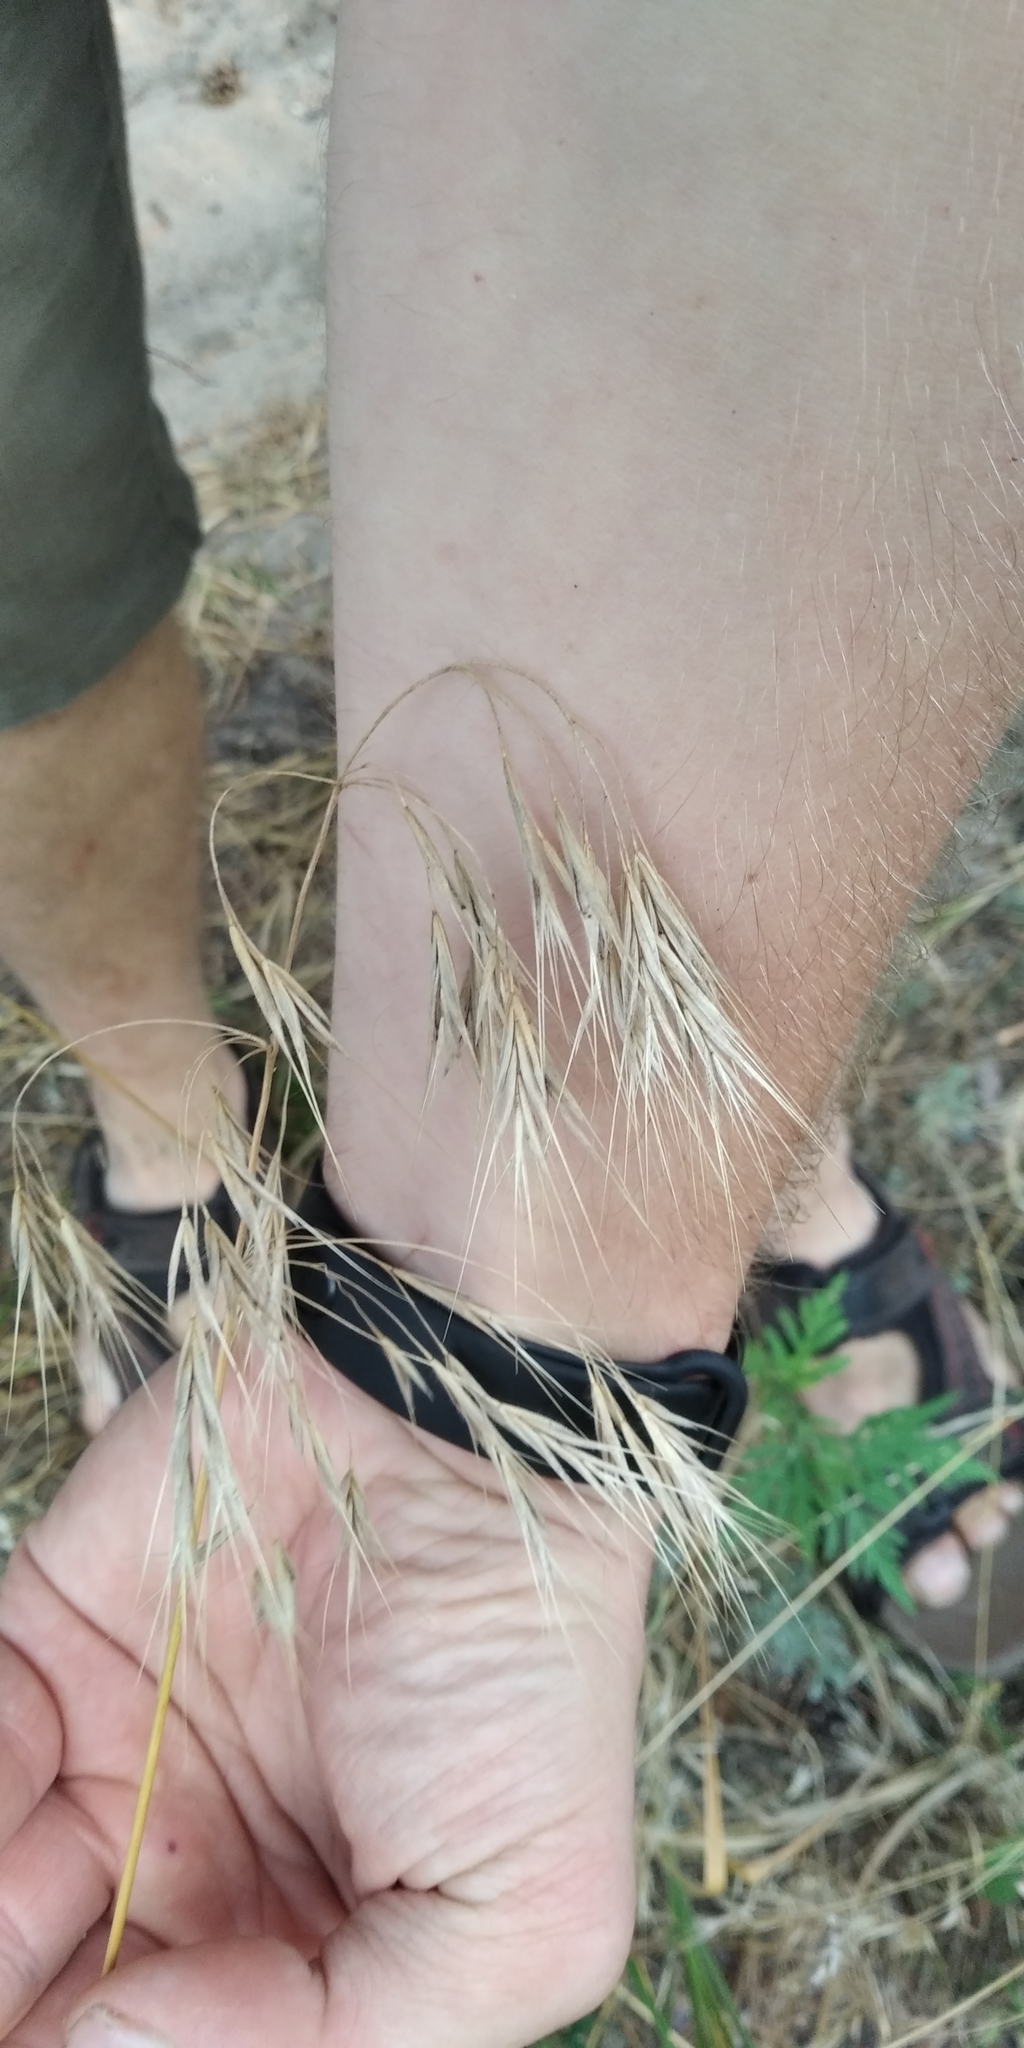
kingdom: Plantae
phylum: Tracheophyta
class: Liliopsida
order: Poales
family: Poaceae
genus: Bromus
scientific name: Bromus tectorum
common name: Cheatgrass
